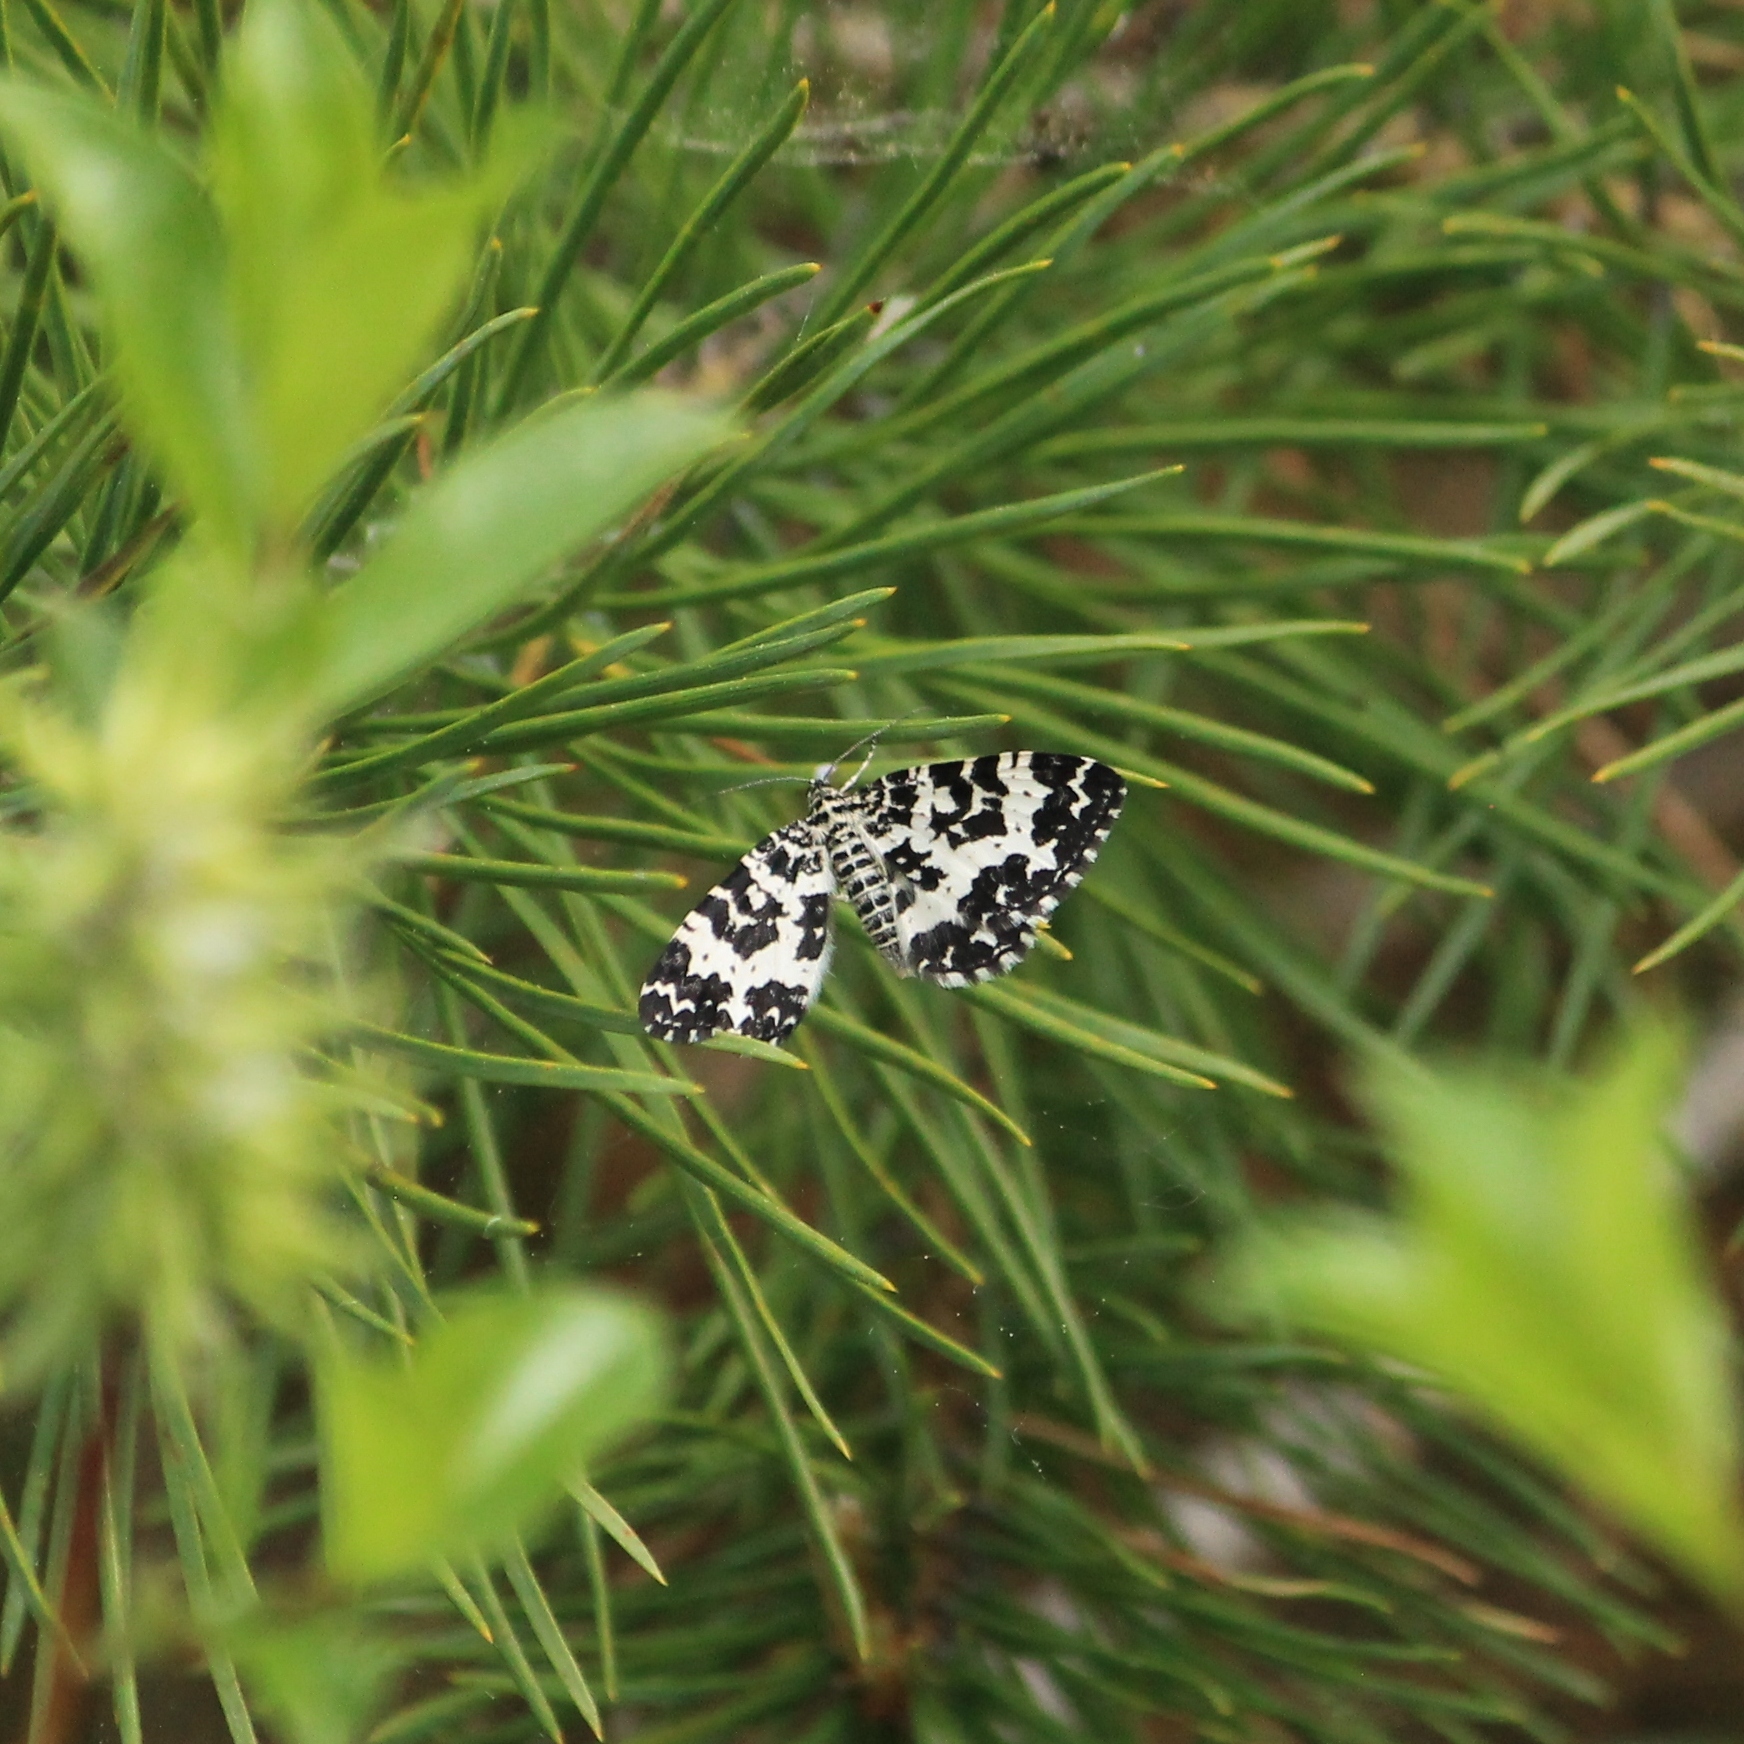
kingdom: Animalia
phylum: Arthropoda
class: Insecta
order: Lepidoptera
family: Geometridae
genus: Rheumaptera
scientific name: Rheumaptera hastata
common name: Argent & sable
